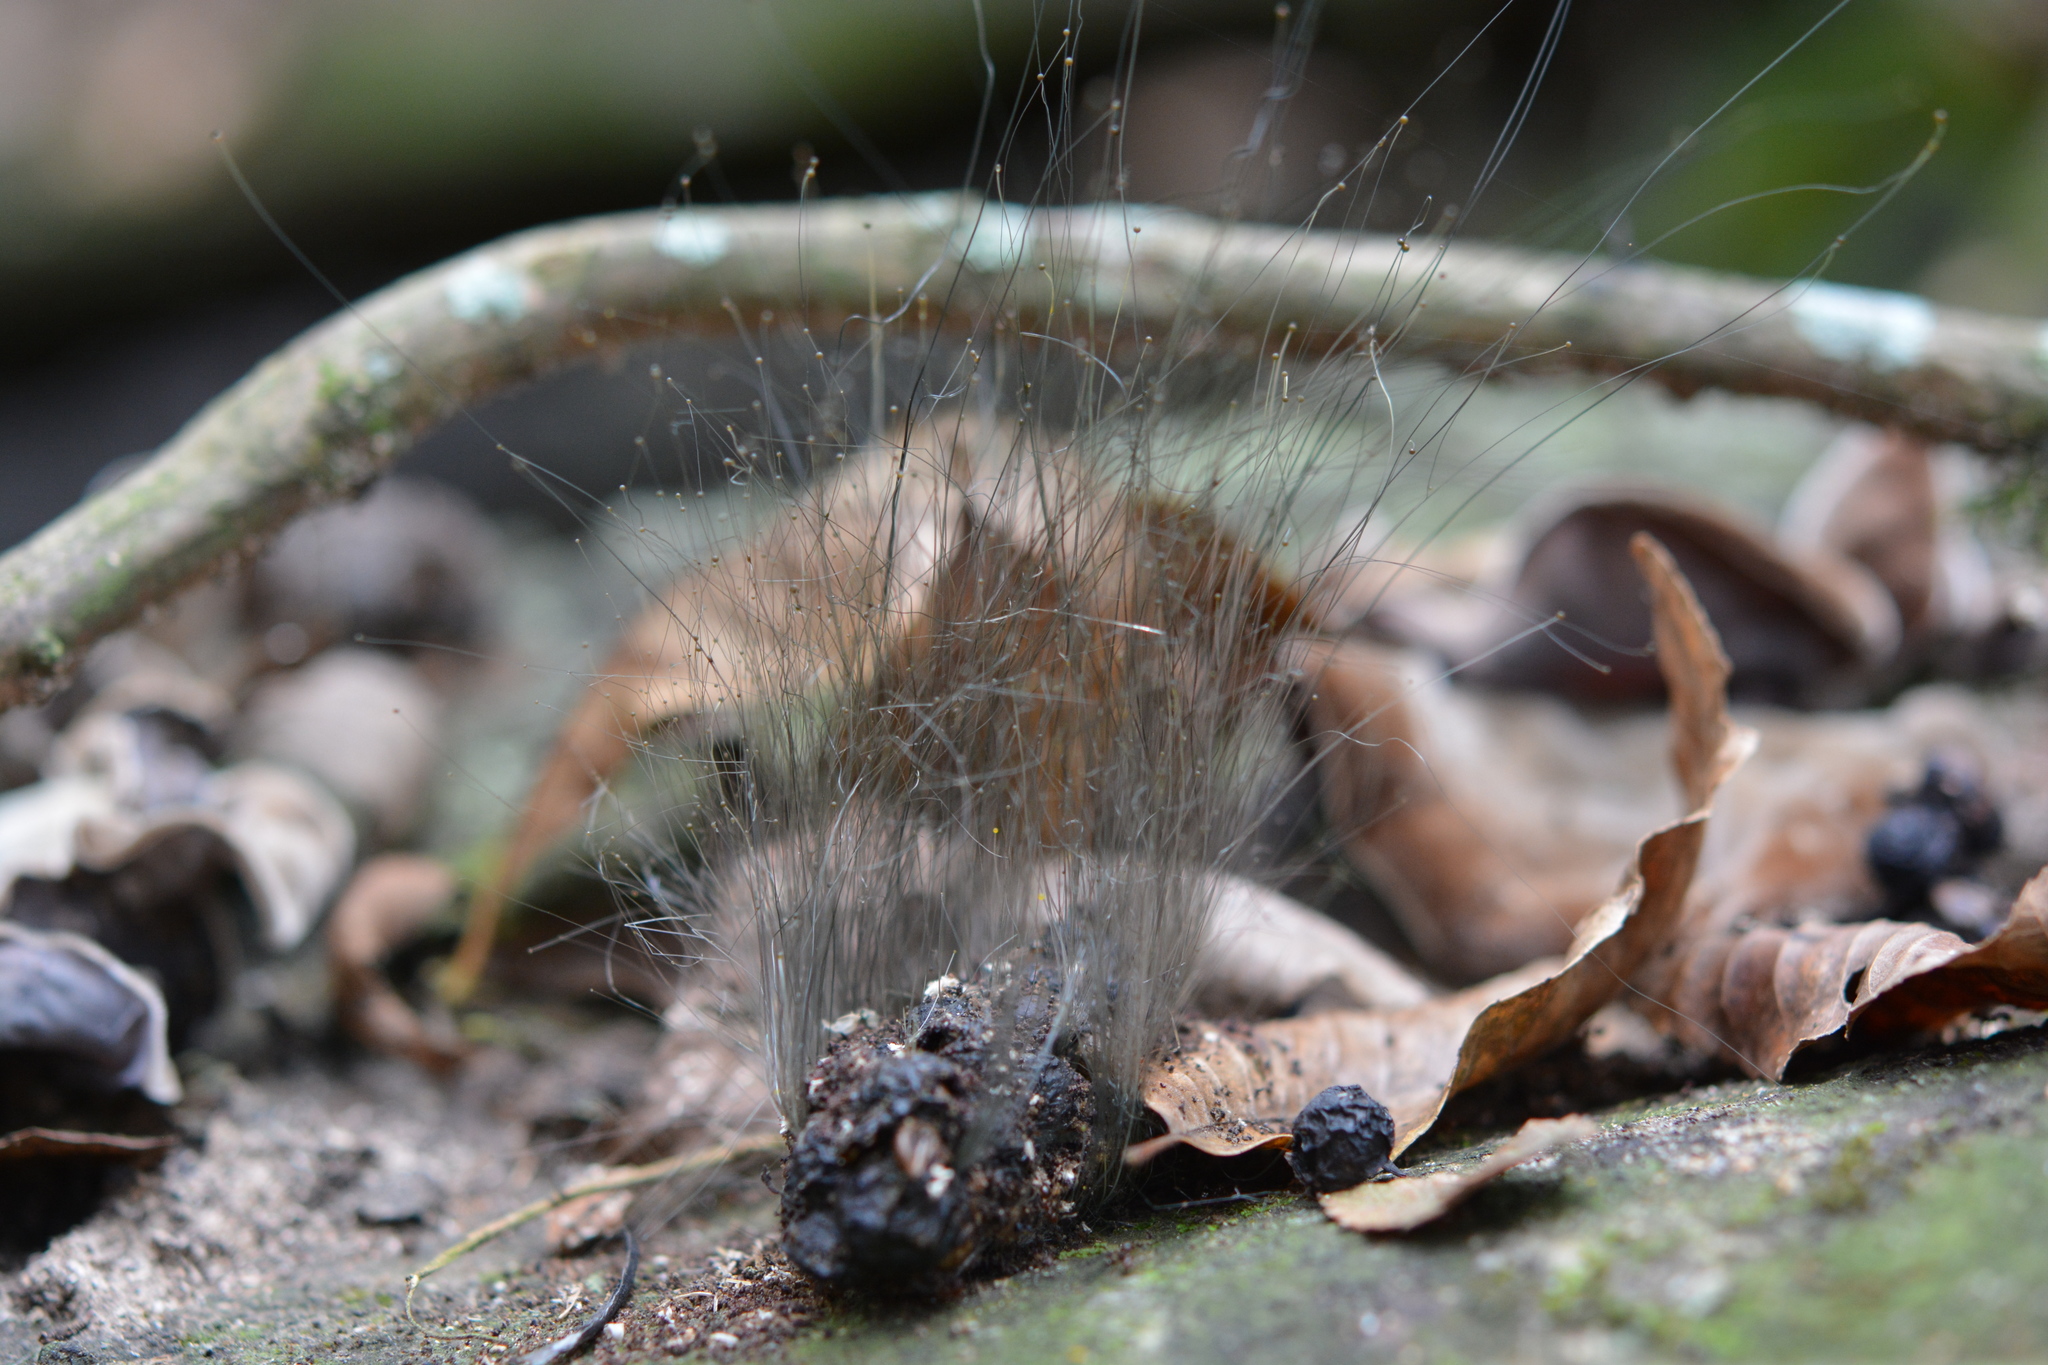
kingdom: Fungi
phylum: Mucoromycota
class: Mucoromycetes
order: Mucorales
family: Phycomycetaceae
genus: Phycomyces
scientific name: Phycomyces
